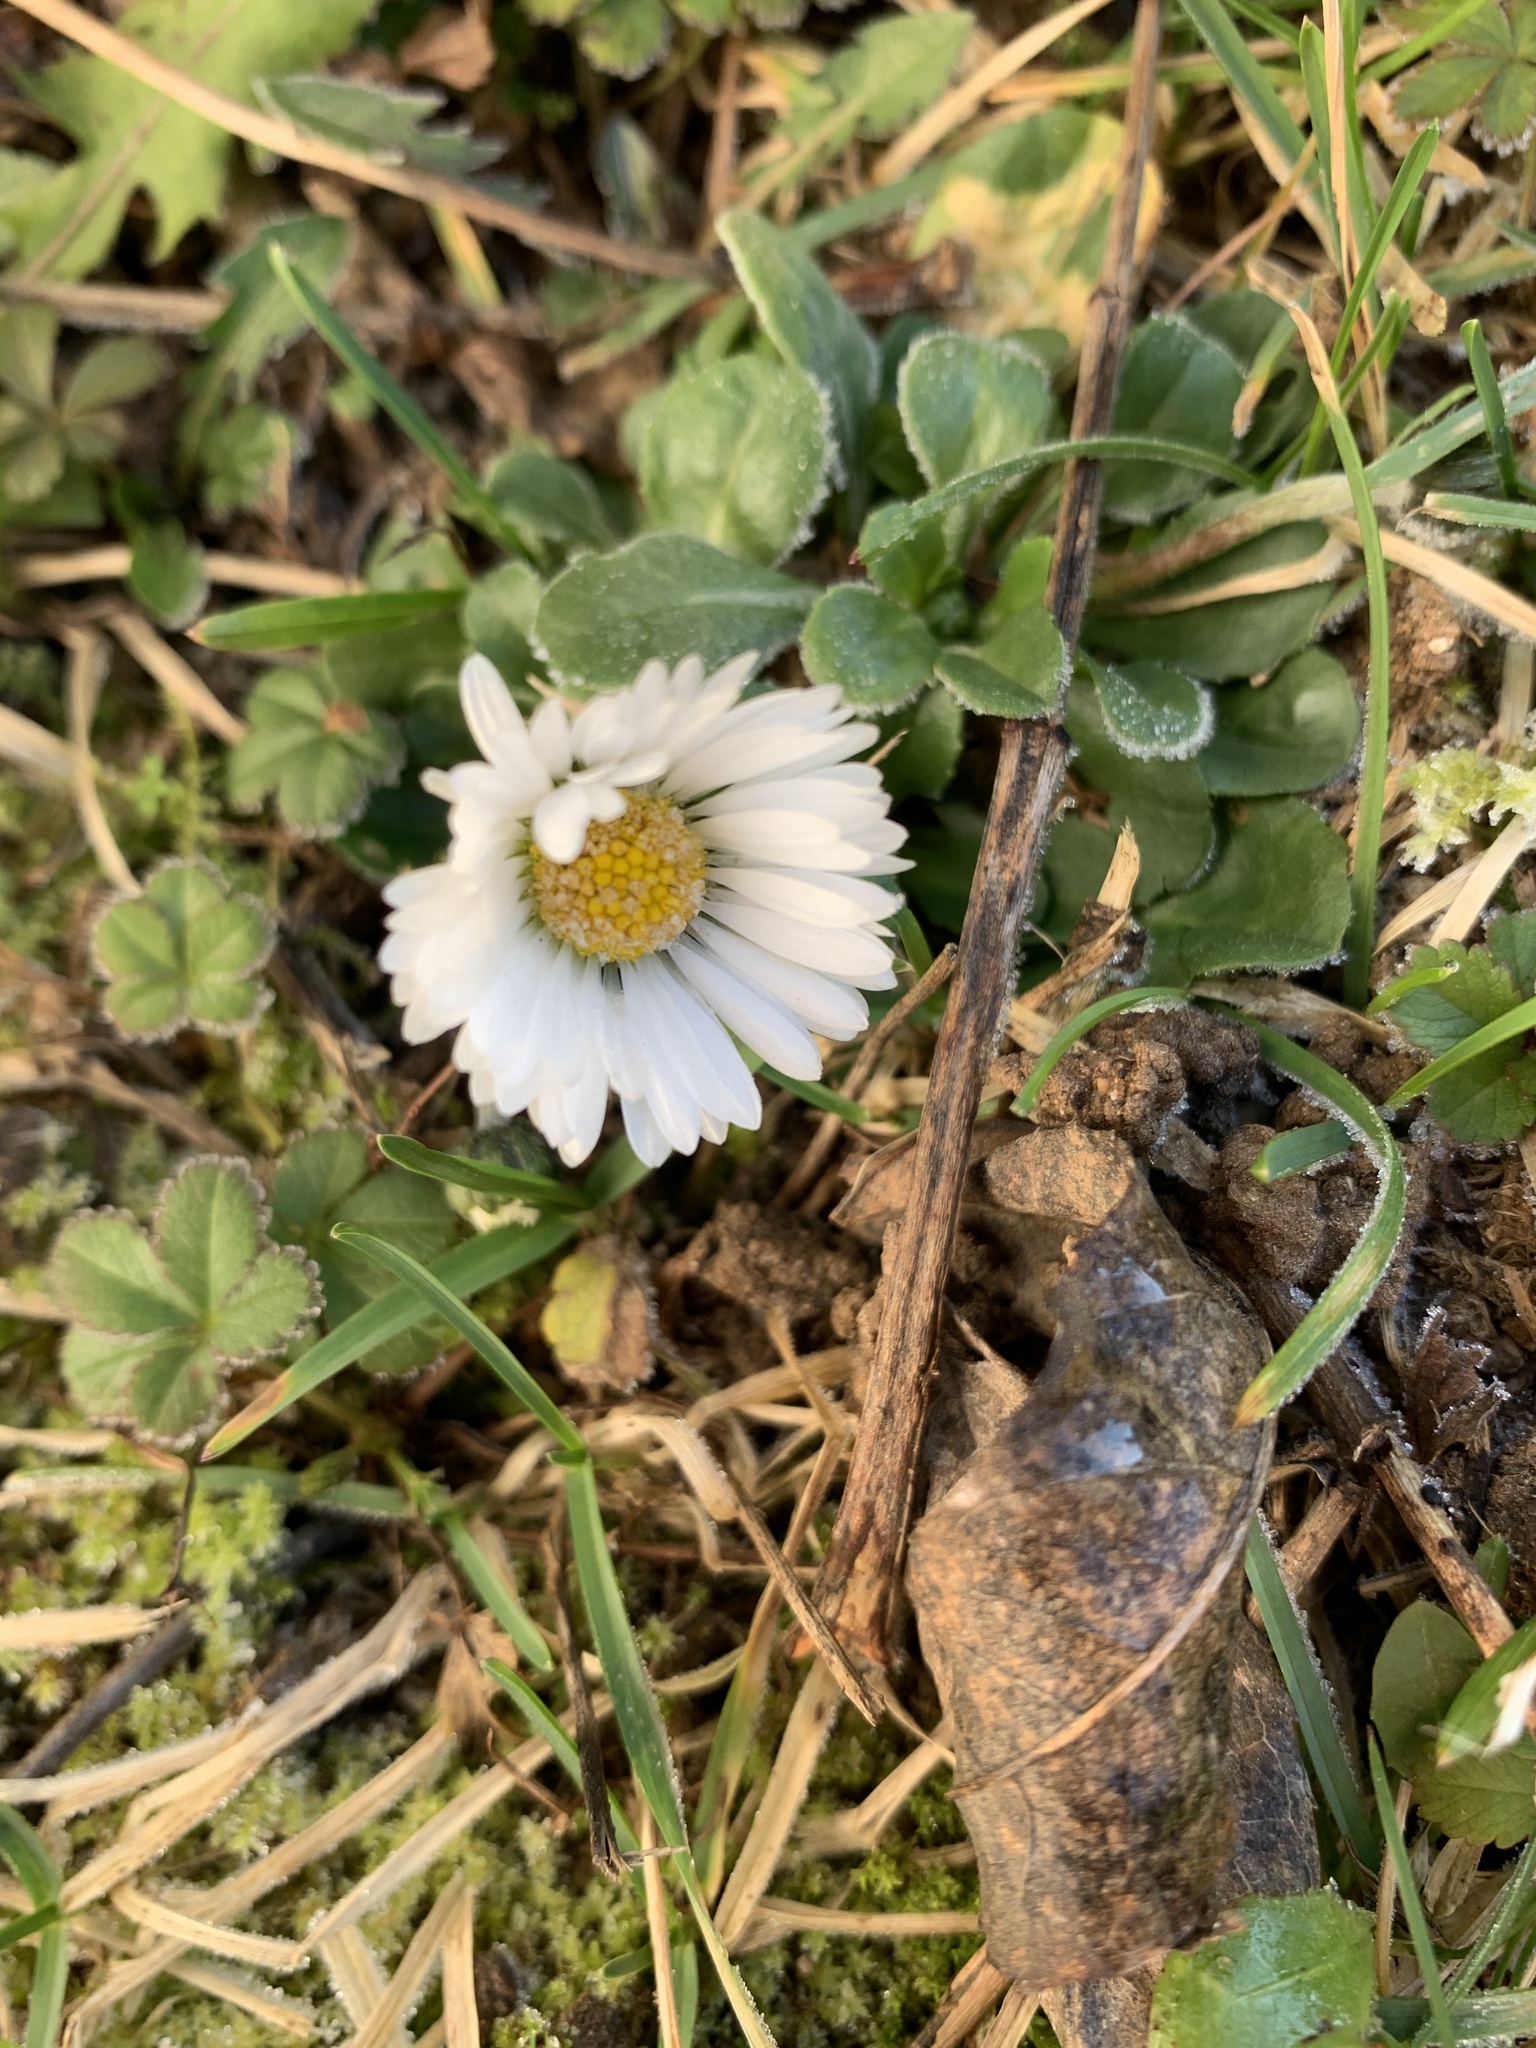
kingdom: Plantae
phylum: Tracheophyta
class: Magnoliopsida
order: Asterales
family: Asteraceae
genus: Bellis
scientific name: Bellis perennis
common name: Lawndaisy
